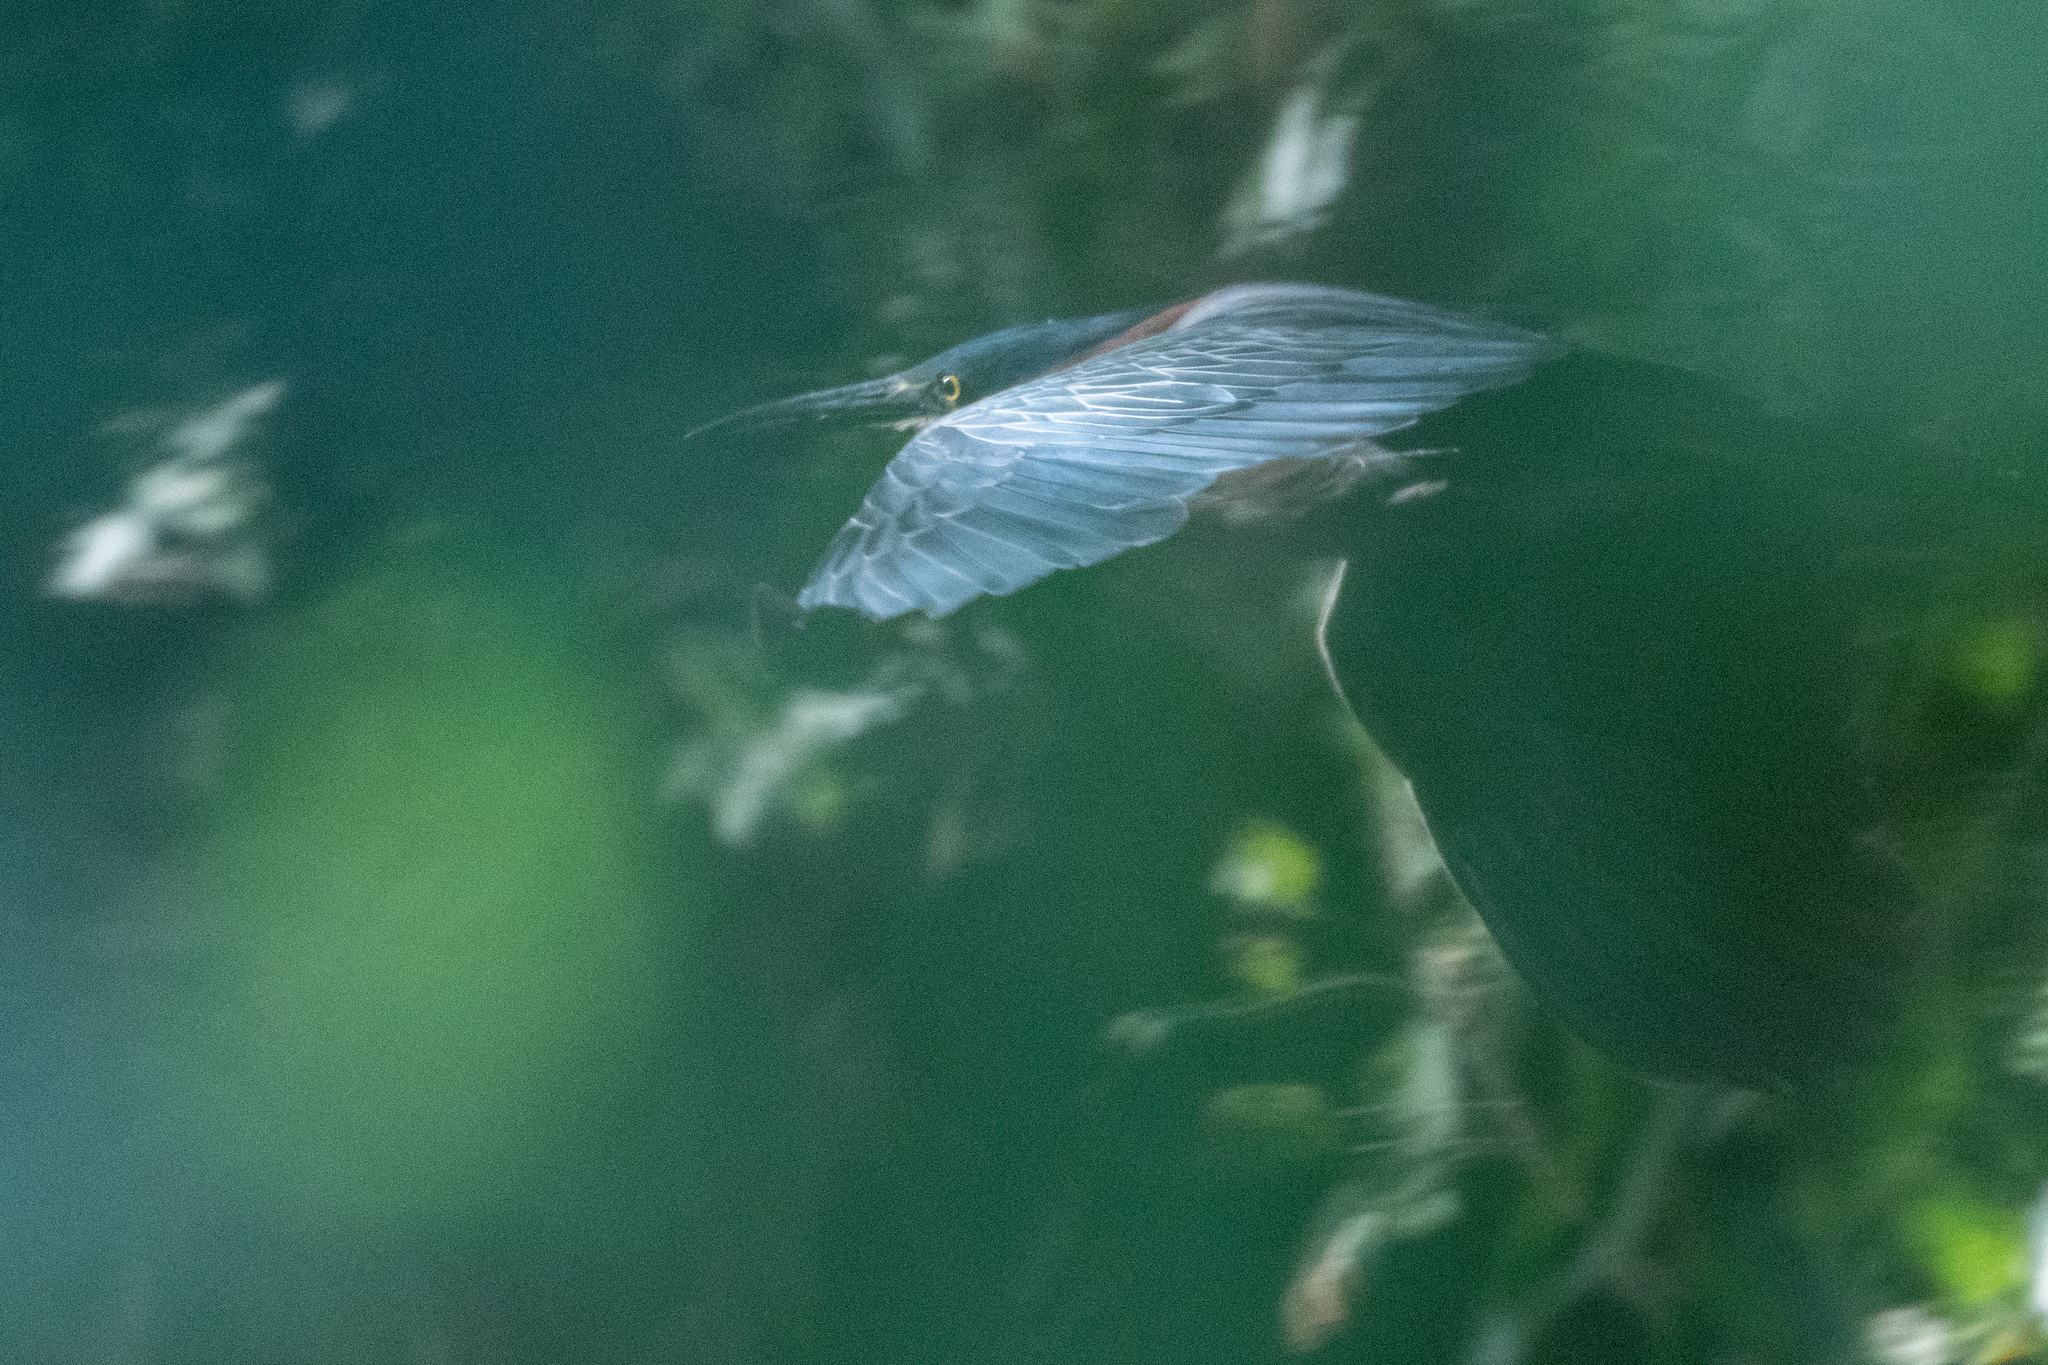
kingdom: Animalia
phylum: Chordata
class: Aves
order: Pelecaniformes
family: Ardeidae
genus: Butorides
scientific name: Butorides virescens
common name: Green heron
